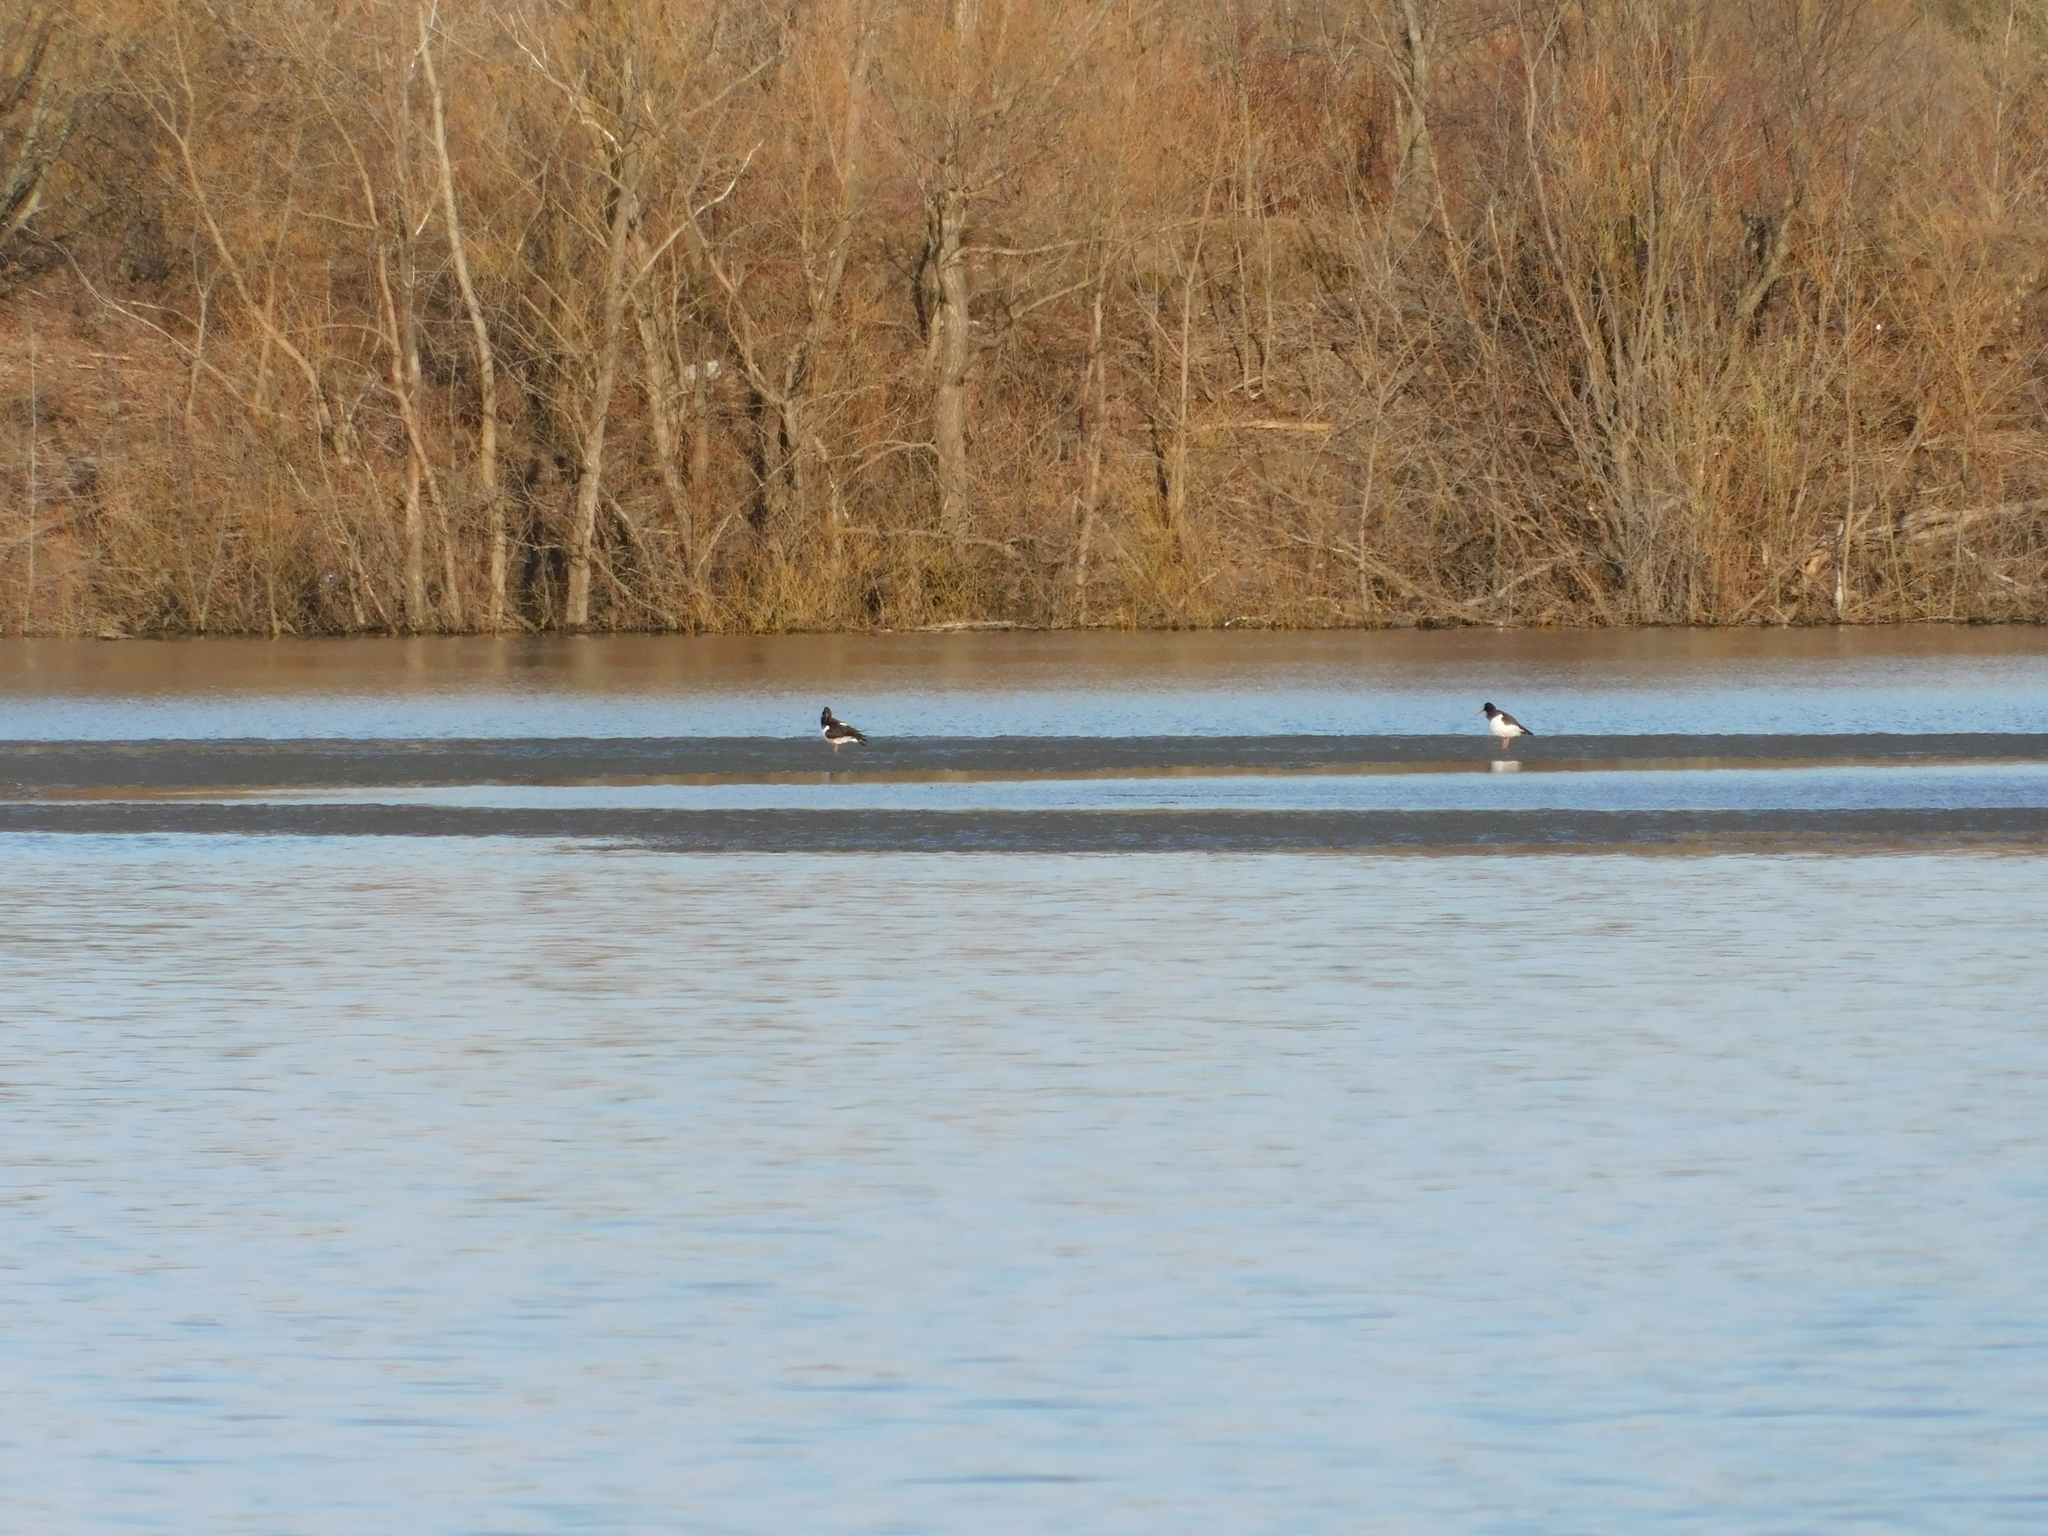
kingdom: Animalia
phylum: Chordata
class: Aves
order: Charadriiformes
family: Haematopodidae
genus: Haematopus
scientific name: Haematopus ostralegus
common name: Eurasian oystercatcher
